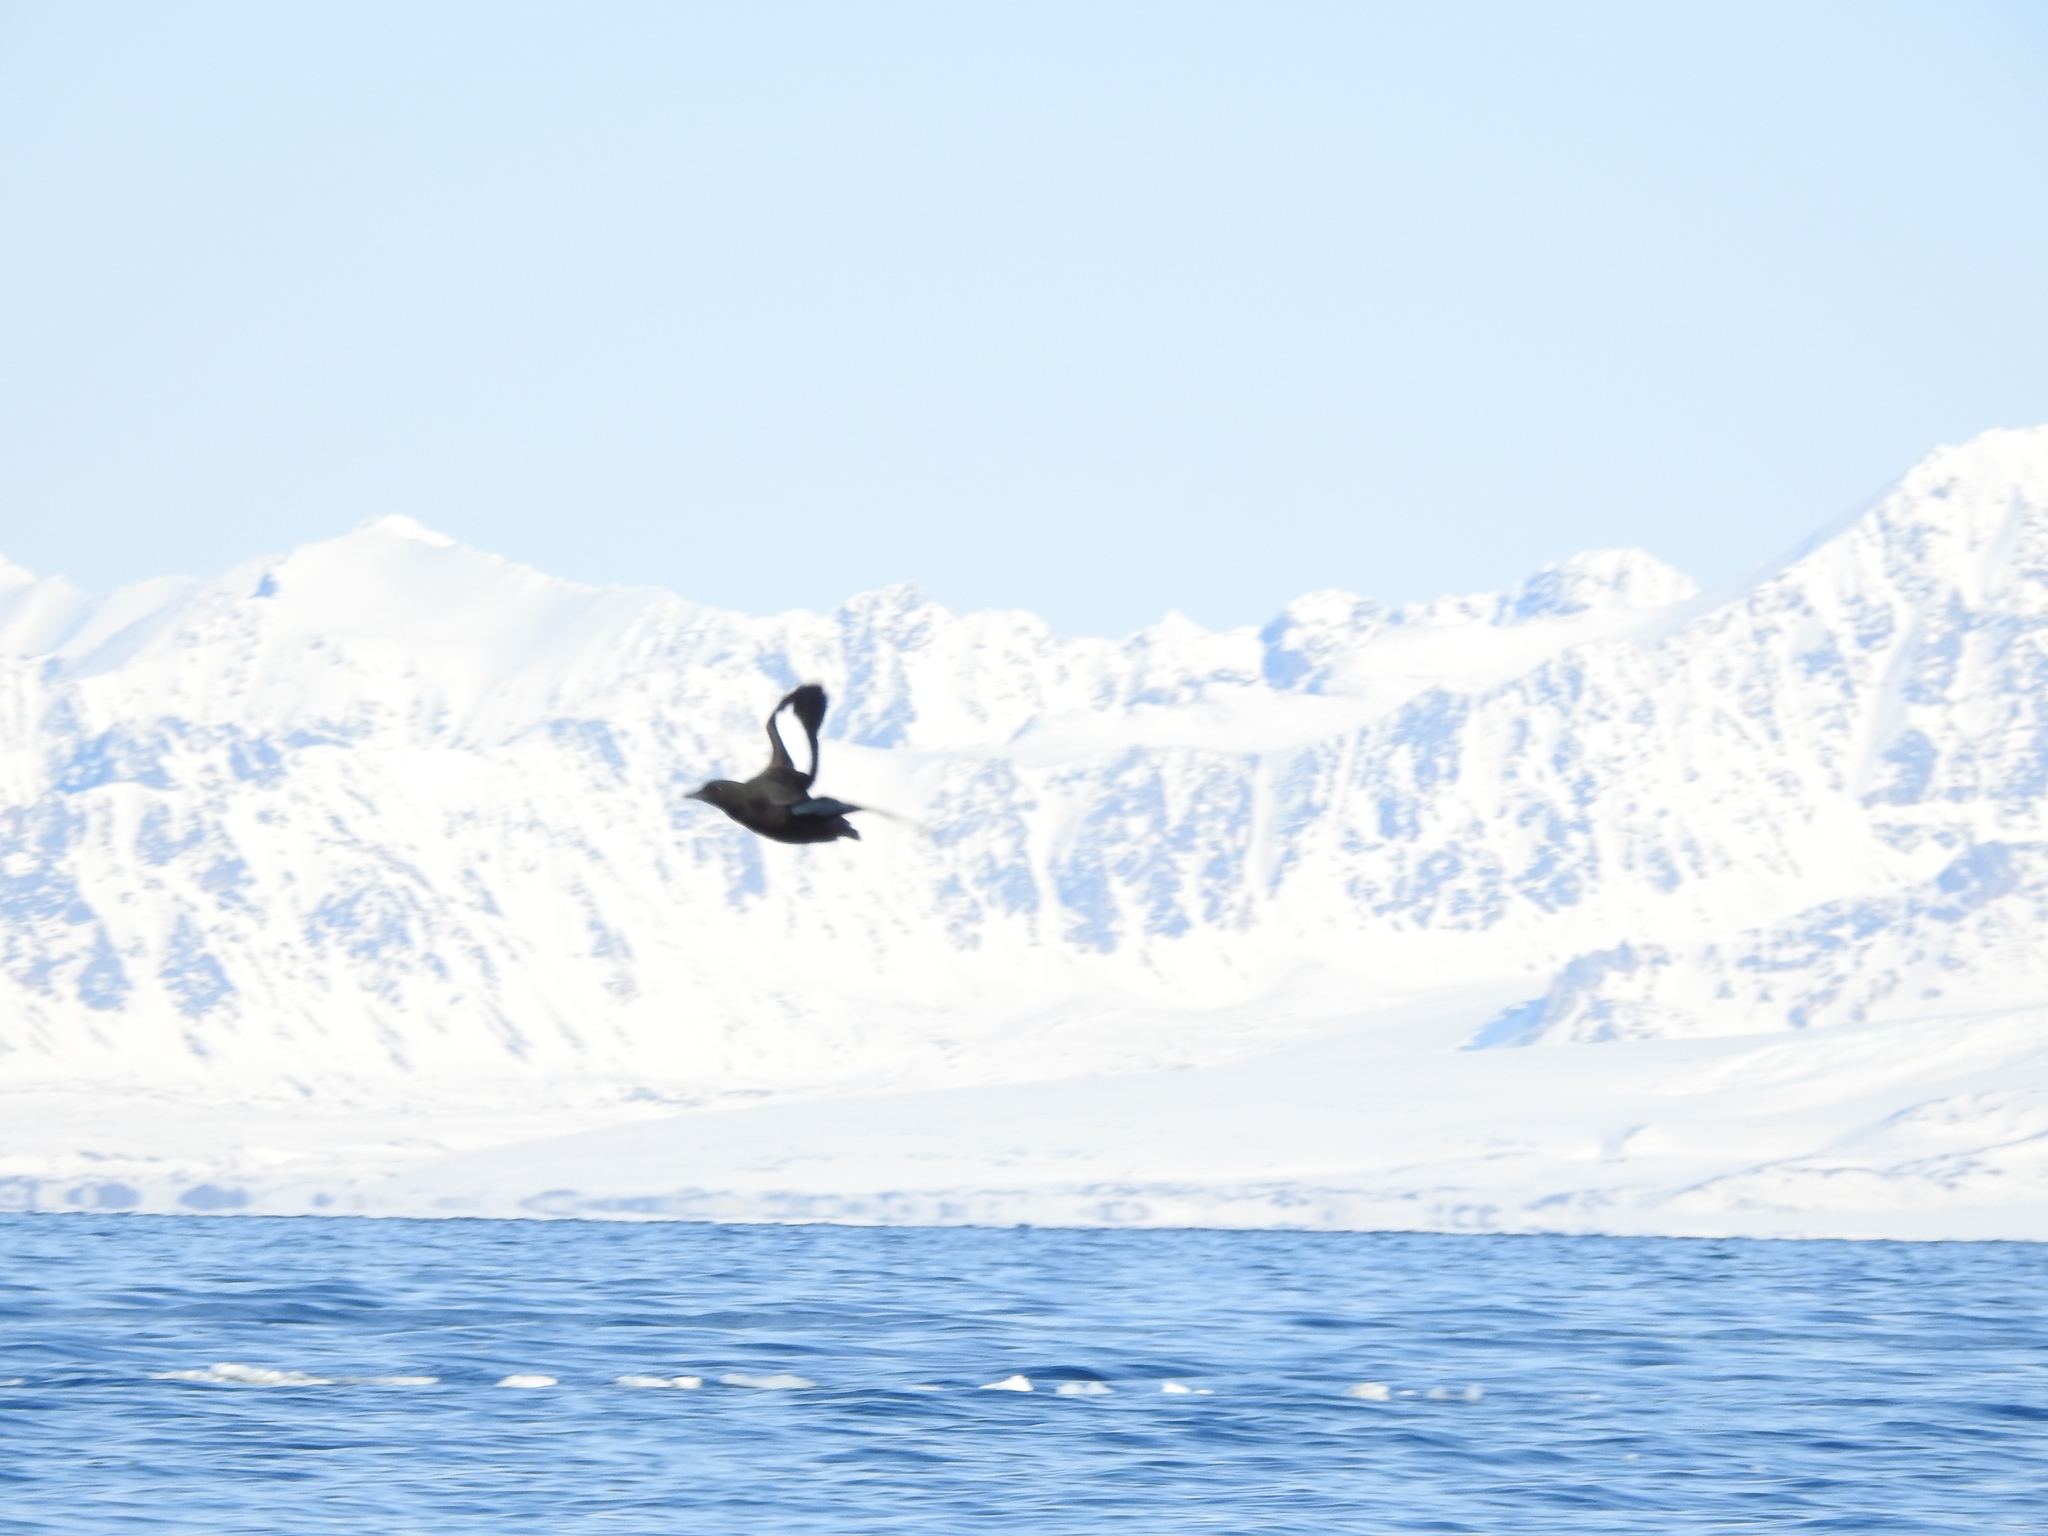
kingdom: Animalia
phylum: Chordata
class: Aves
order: Charadriiformes
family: Alcidae
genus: Cepphus
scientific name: Cepphus grylle
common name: Black guillemot
